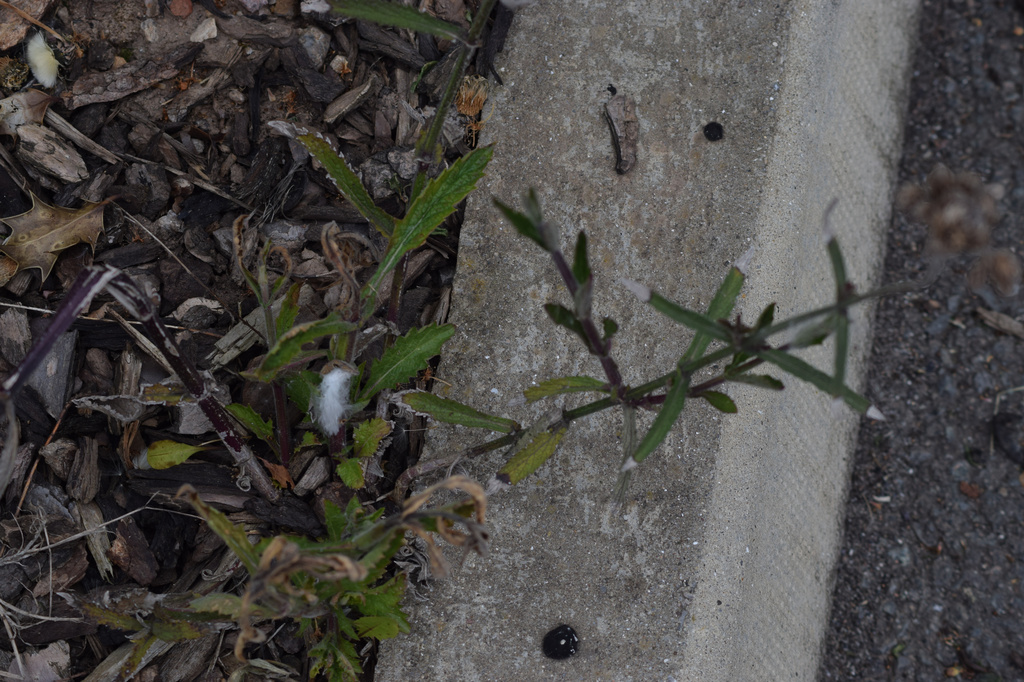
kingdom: Plantae
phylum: Tracheophyta
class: Magnoliopsida
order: Lamiales
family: Verbenaceae
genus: Verbena
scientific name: Verbena bonariensis
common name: Purpletop vervain
